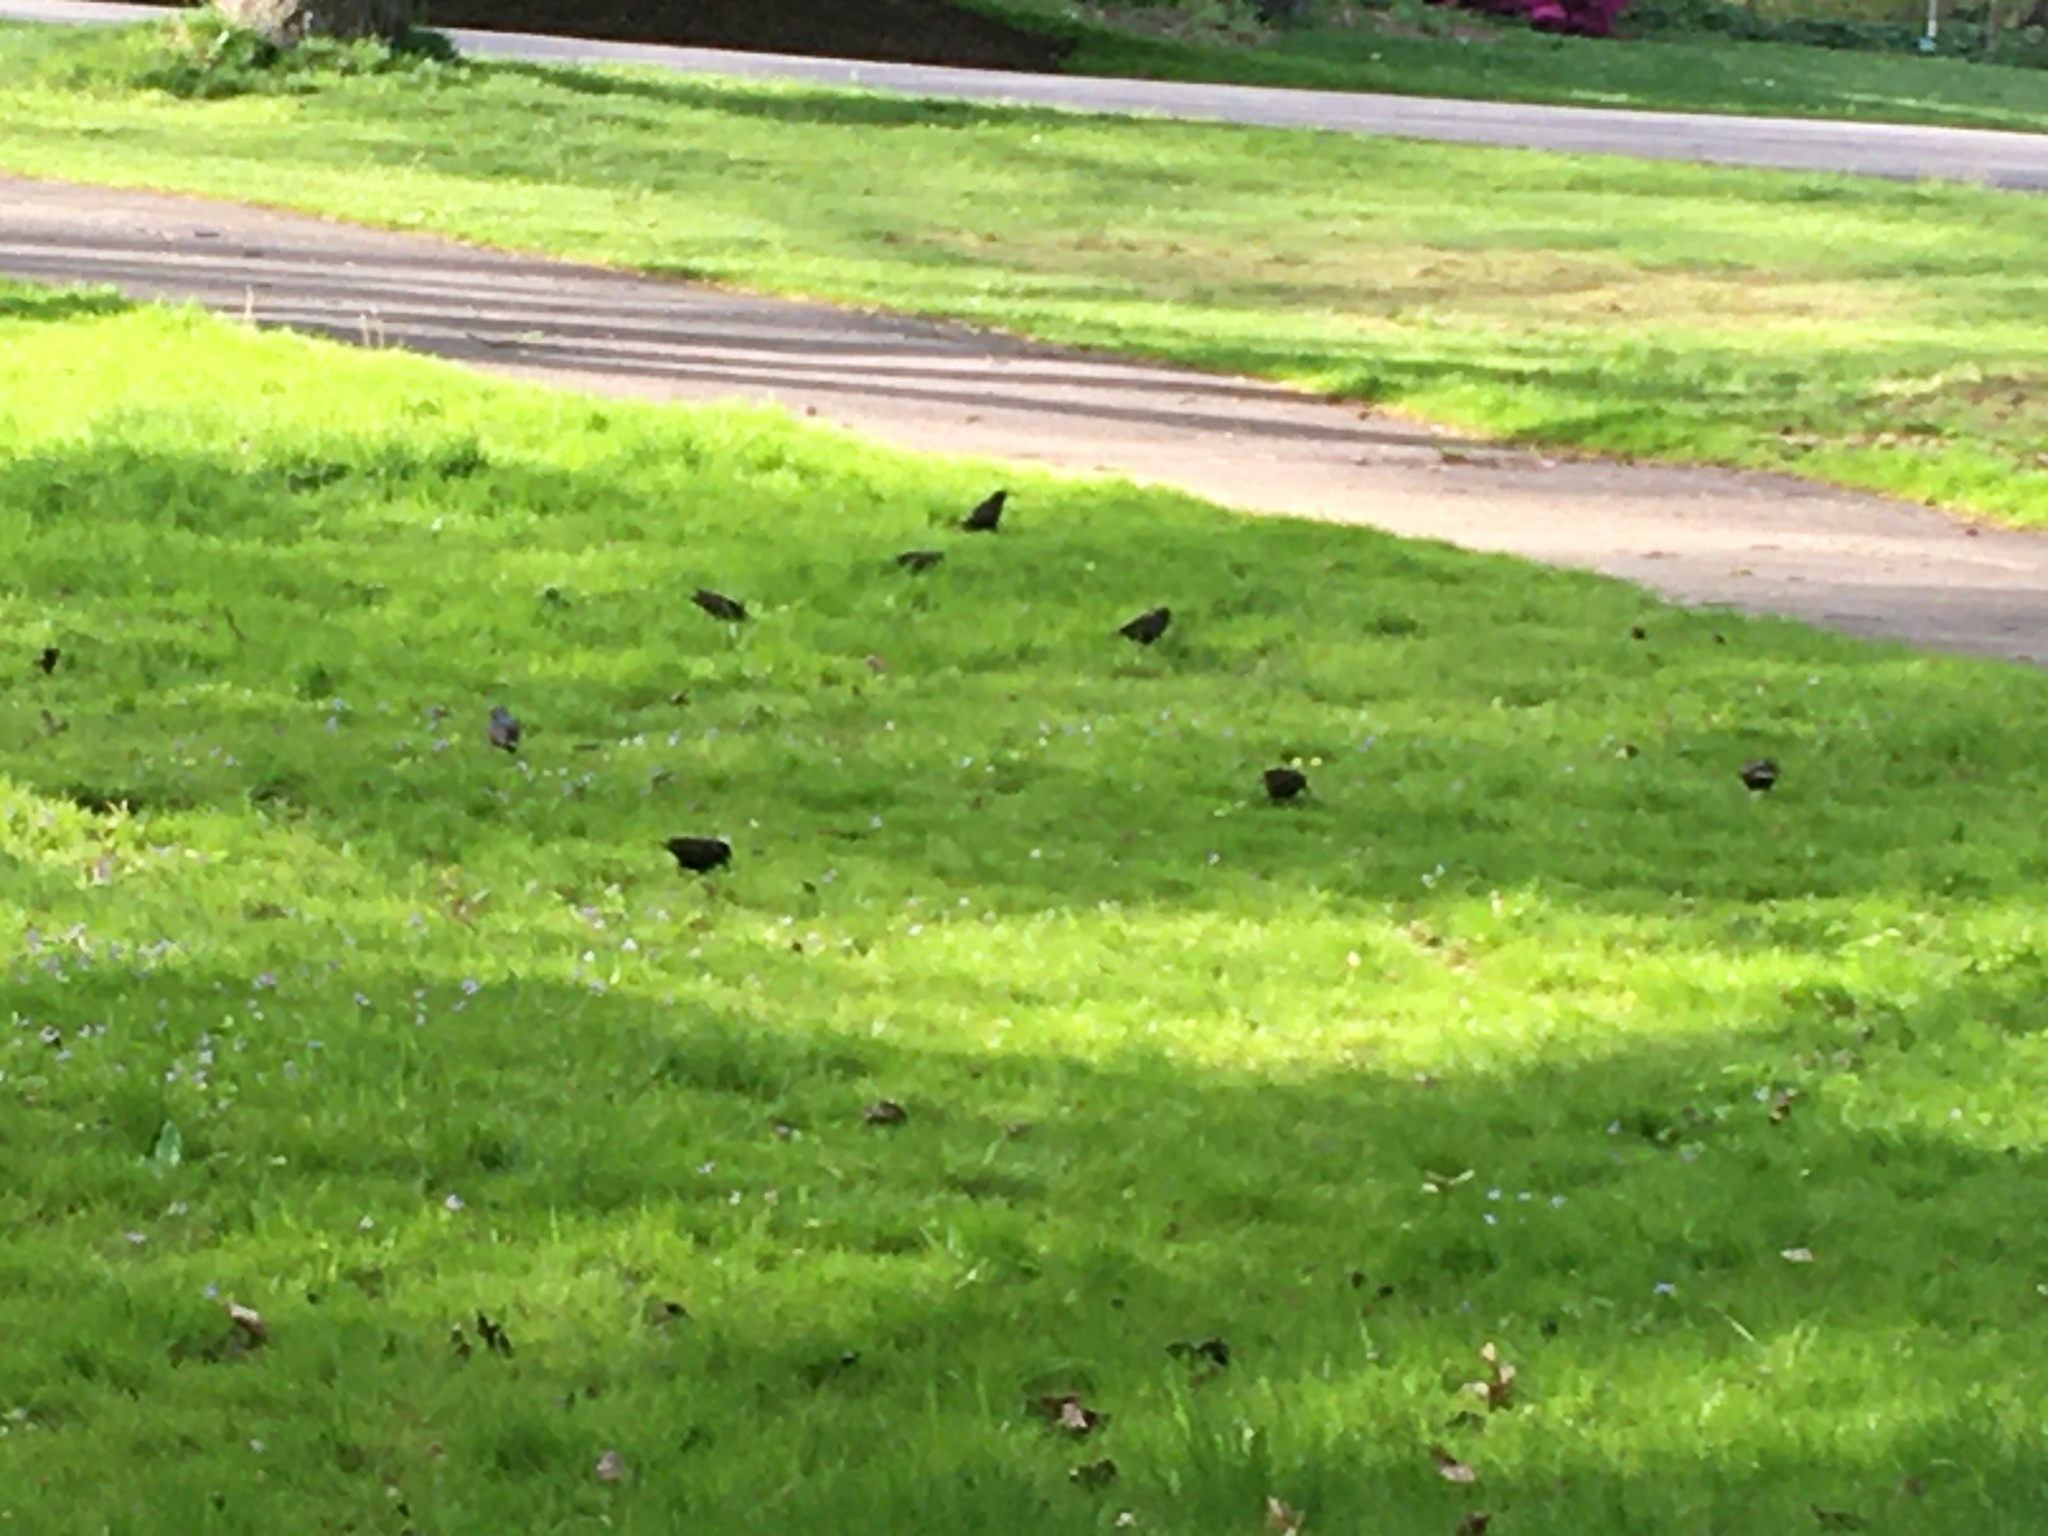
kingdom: Animalia
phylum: Chordata
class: Aves
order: Passeriformes
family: Sturnidae
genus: Sturnus
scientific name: Sturnus vulgaris
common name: Common starling
